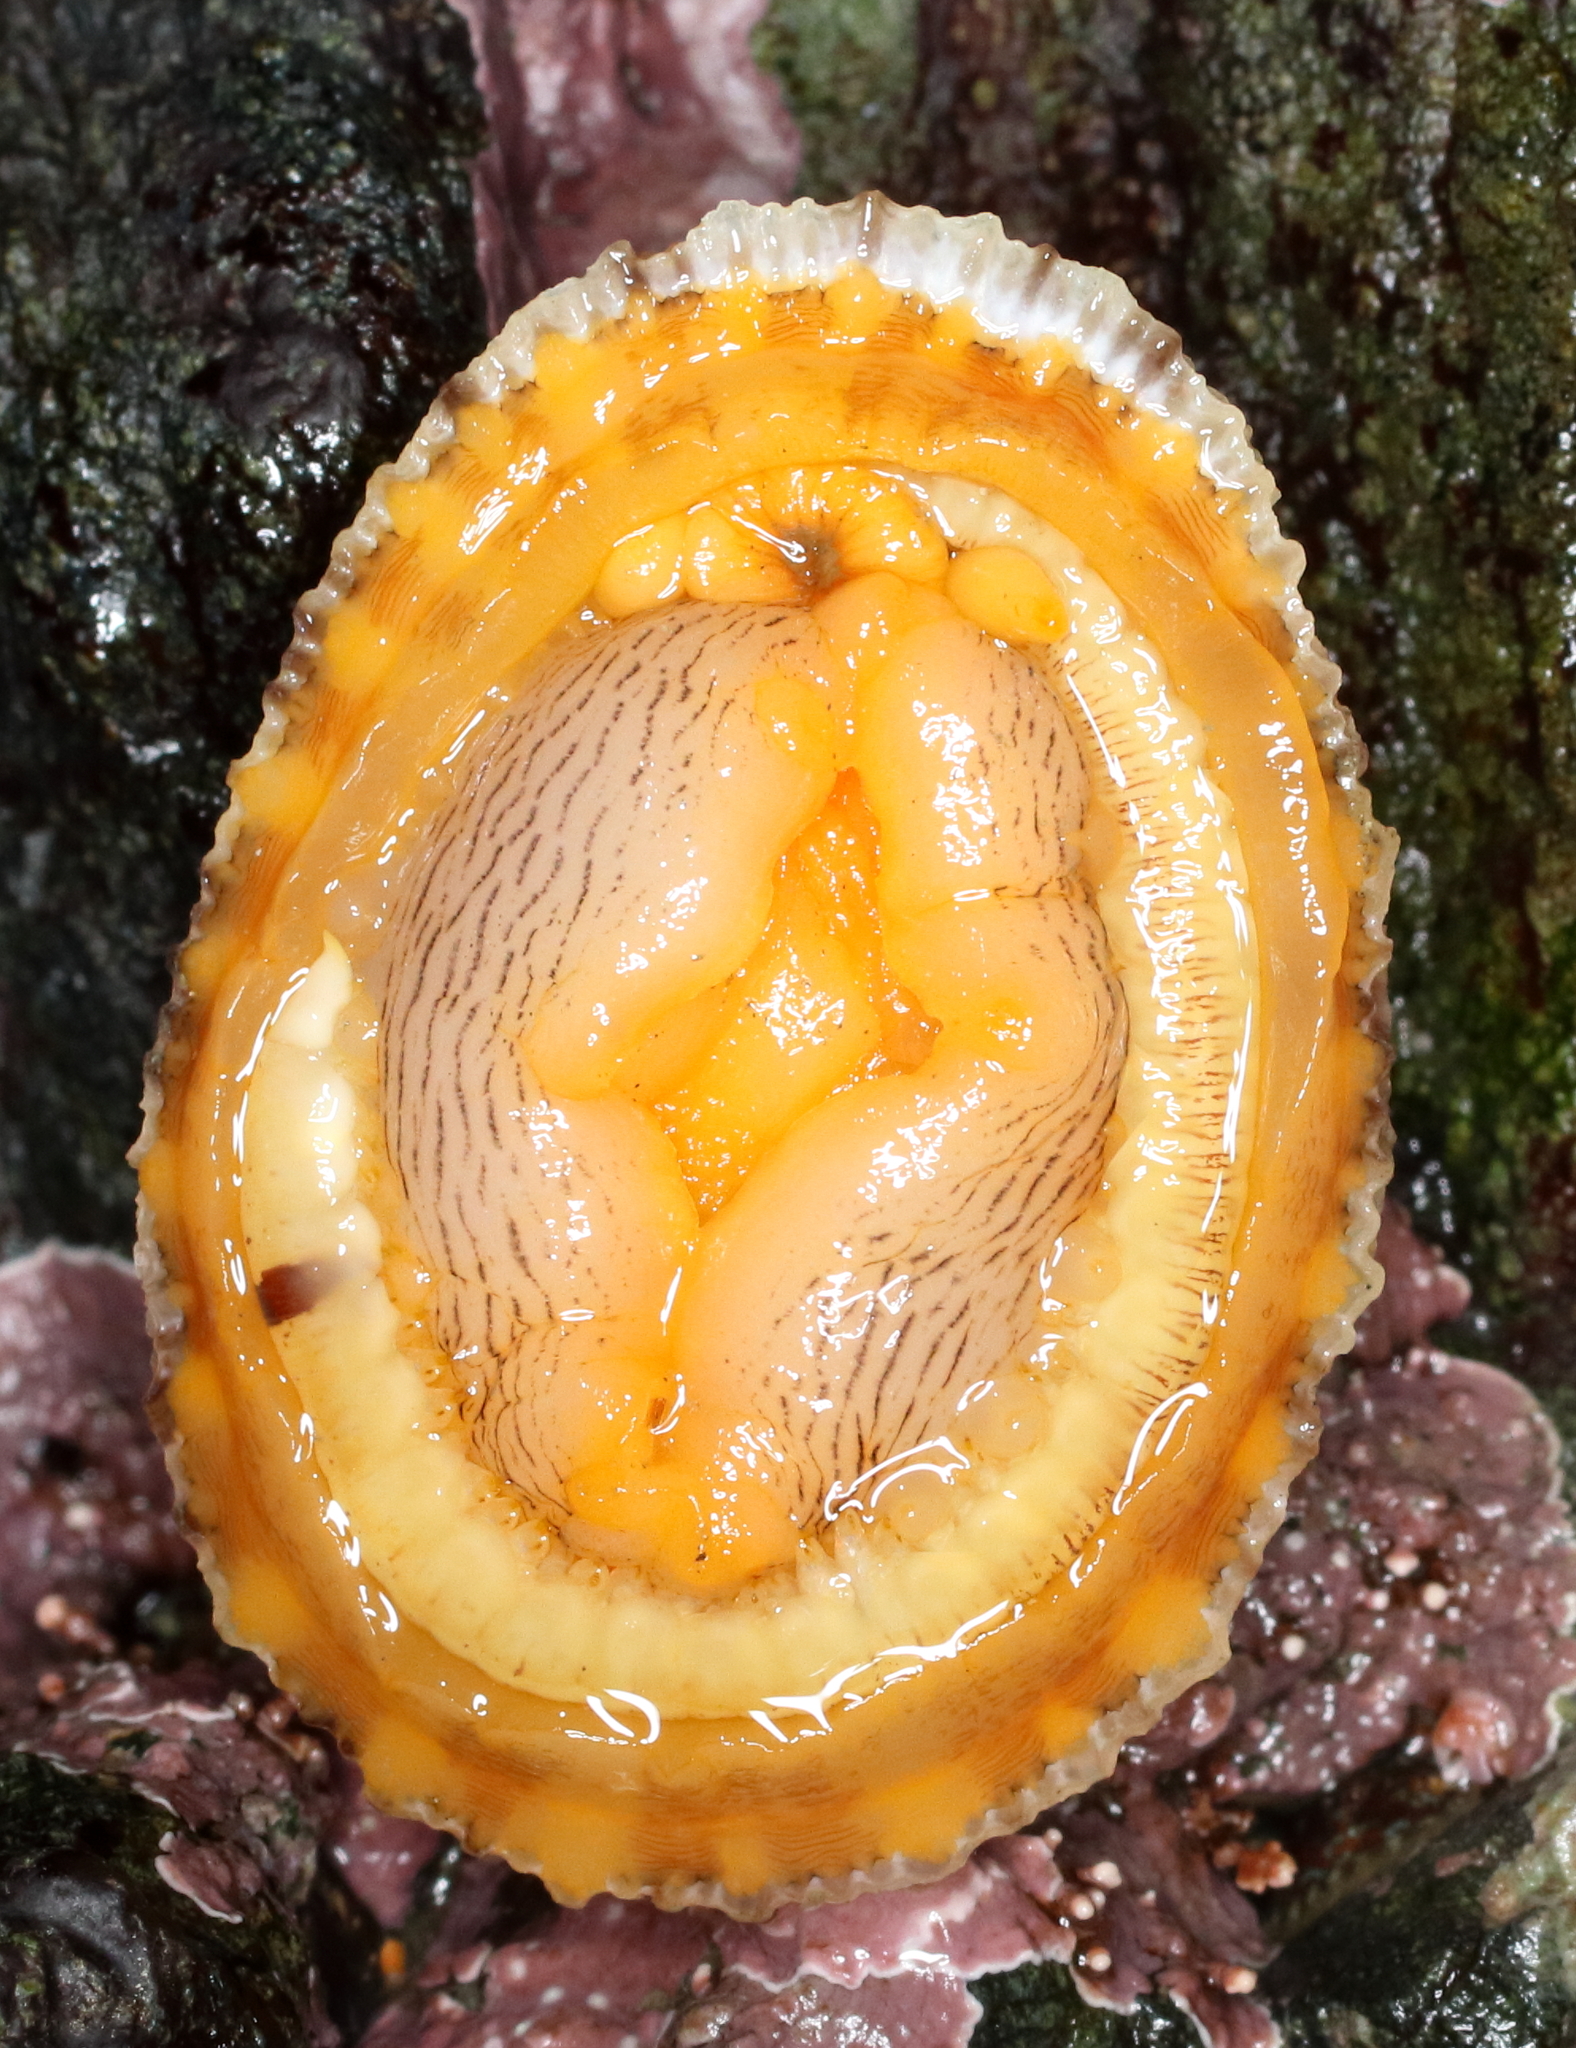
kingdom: Animalia
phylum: Annelida
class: Polychaeta
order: Phyllodocida
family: Polynoidae
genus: Arctonoe
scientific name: Arctonoe vittata
